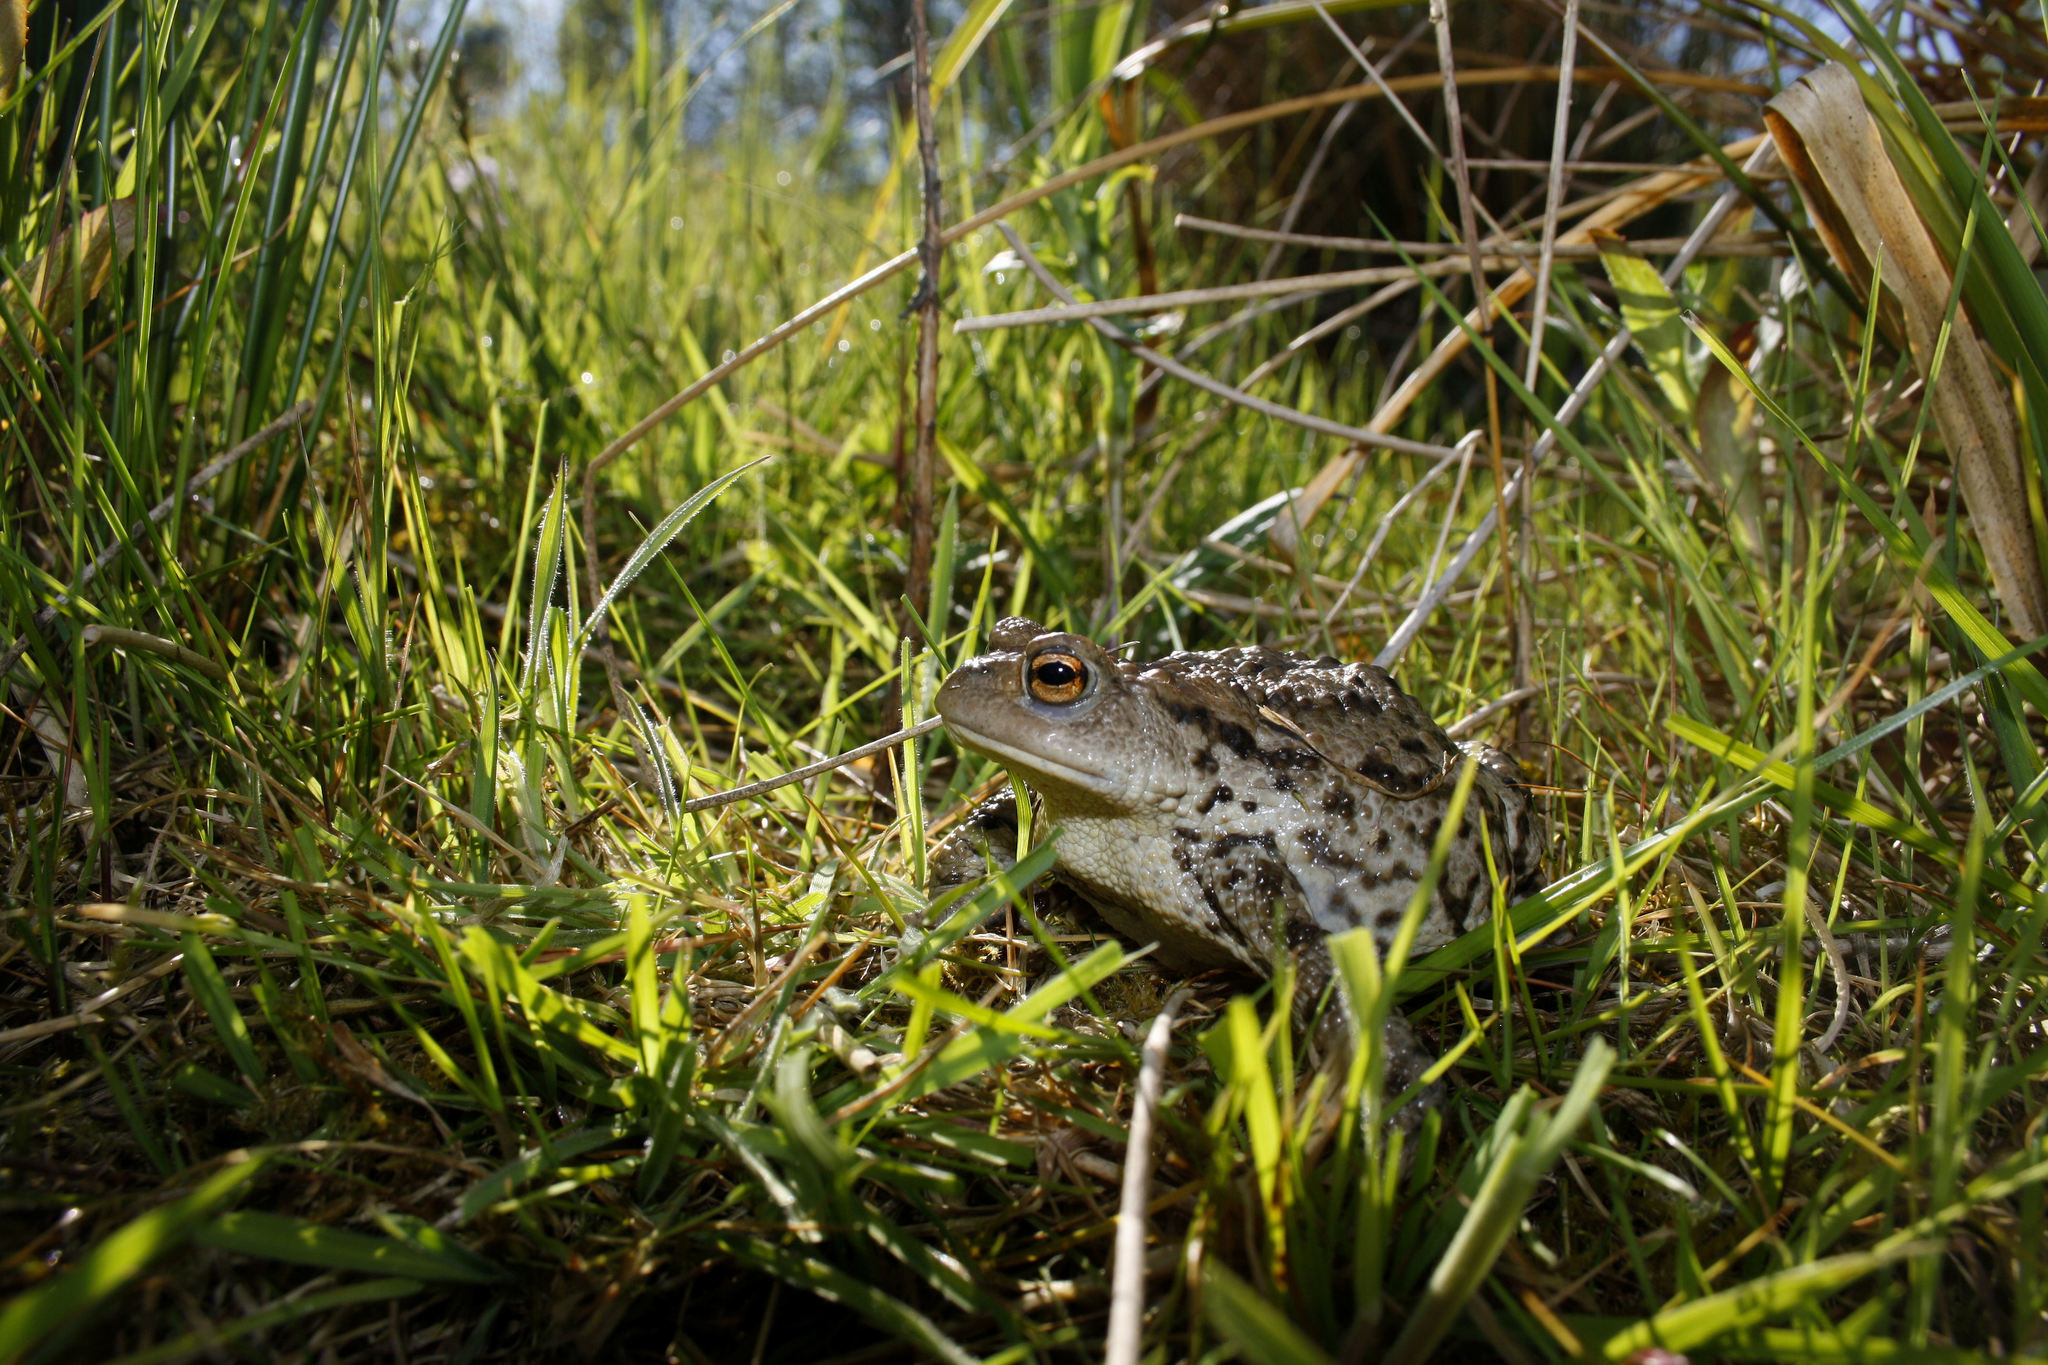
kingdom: Animalia
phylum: Chordata
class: Amphibia
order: Anura
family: Bufonidae
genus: Bufo
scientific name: Bufo bufo
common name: Common toad
